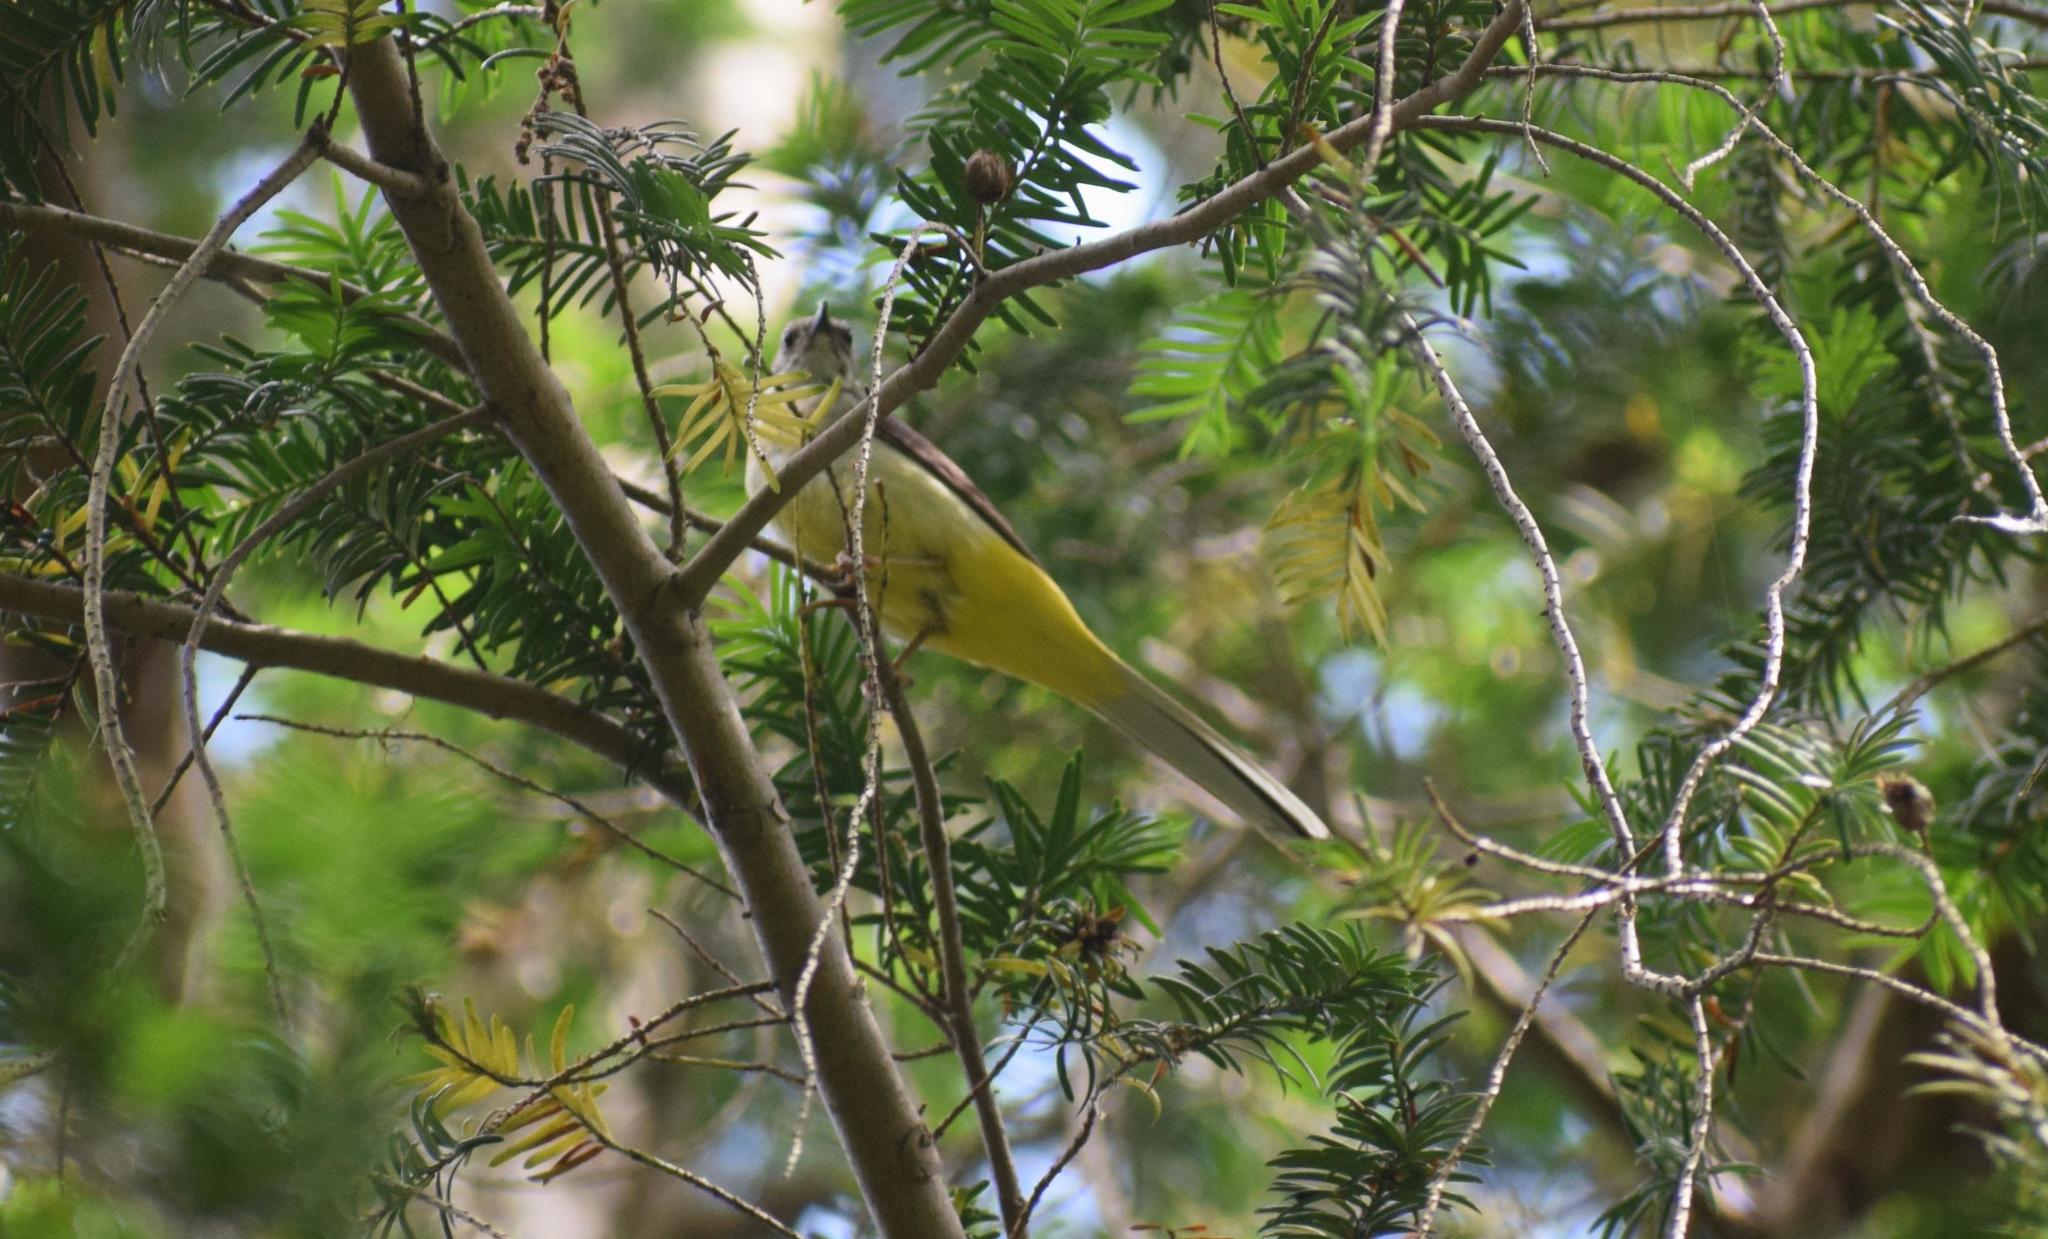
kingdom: Animalia
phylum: Chordata
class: Aves
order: Passeriformes
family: Motacillidae
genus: Motacilla
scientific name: Motacilla cinerea
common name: Grey wagtail
